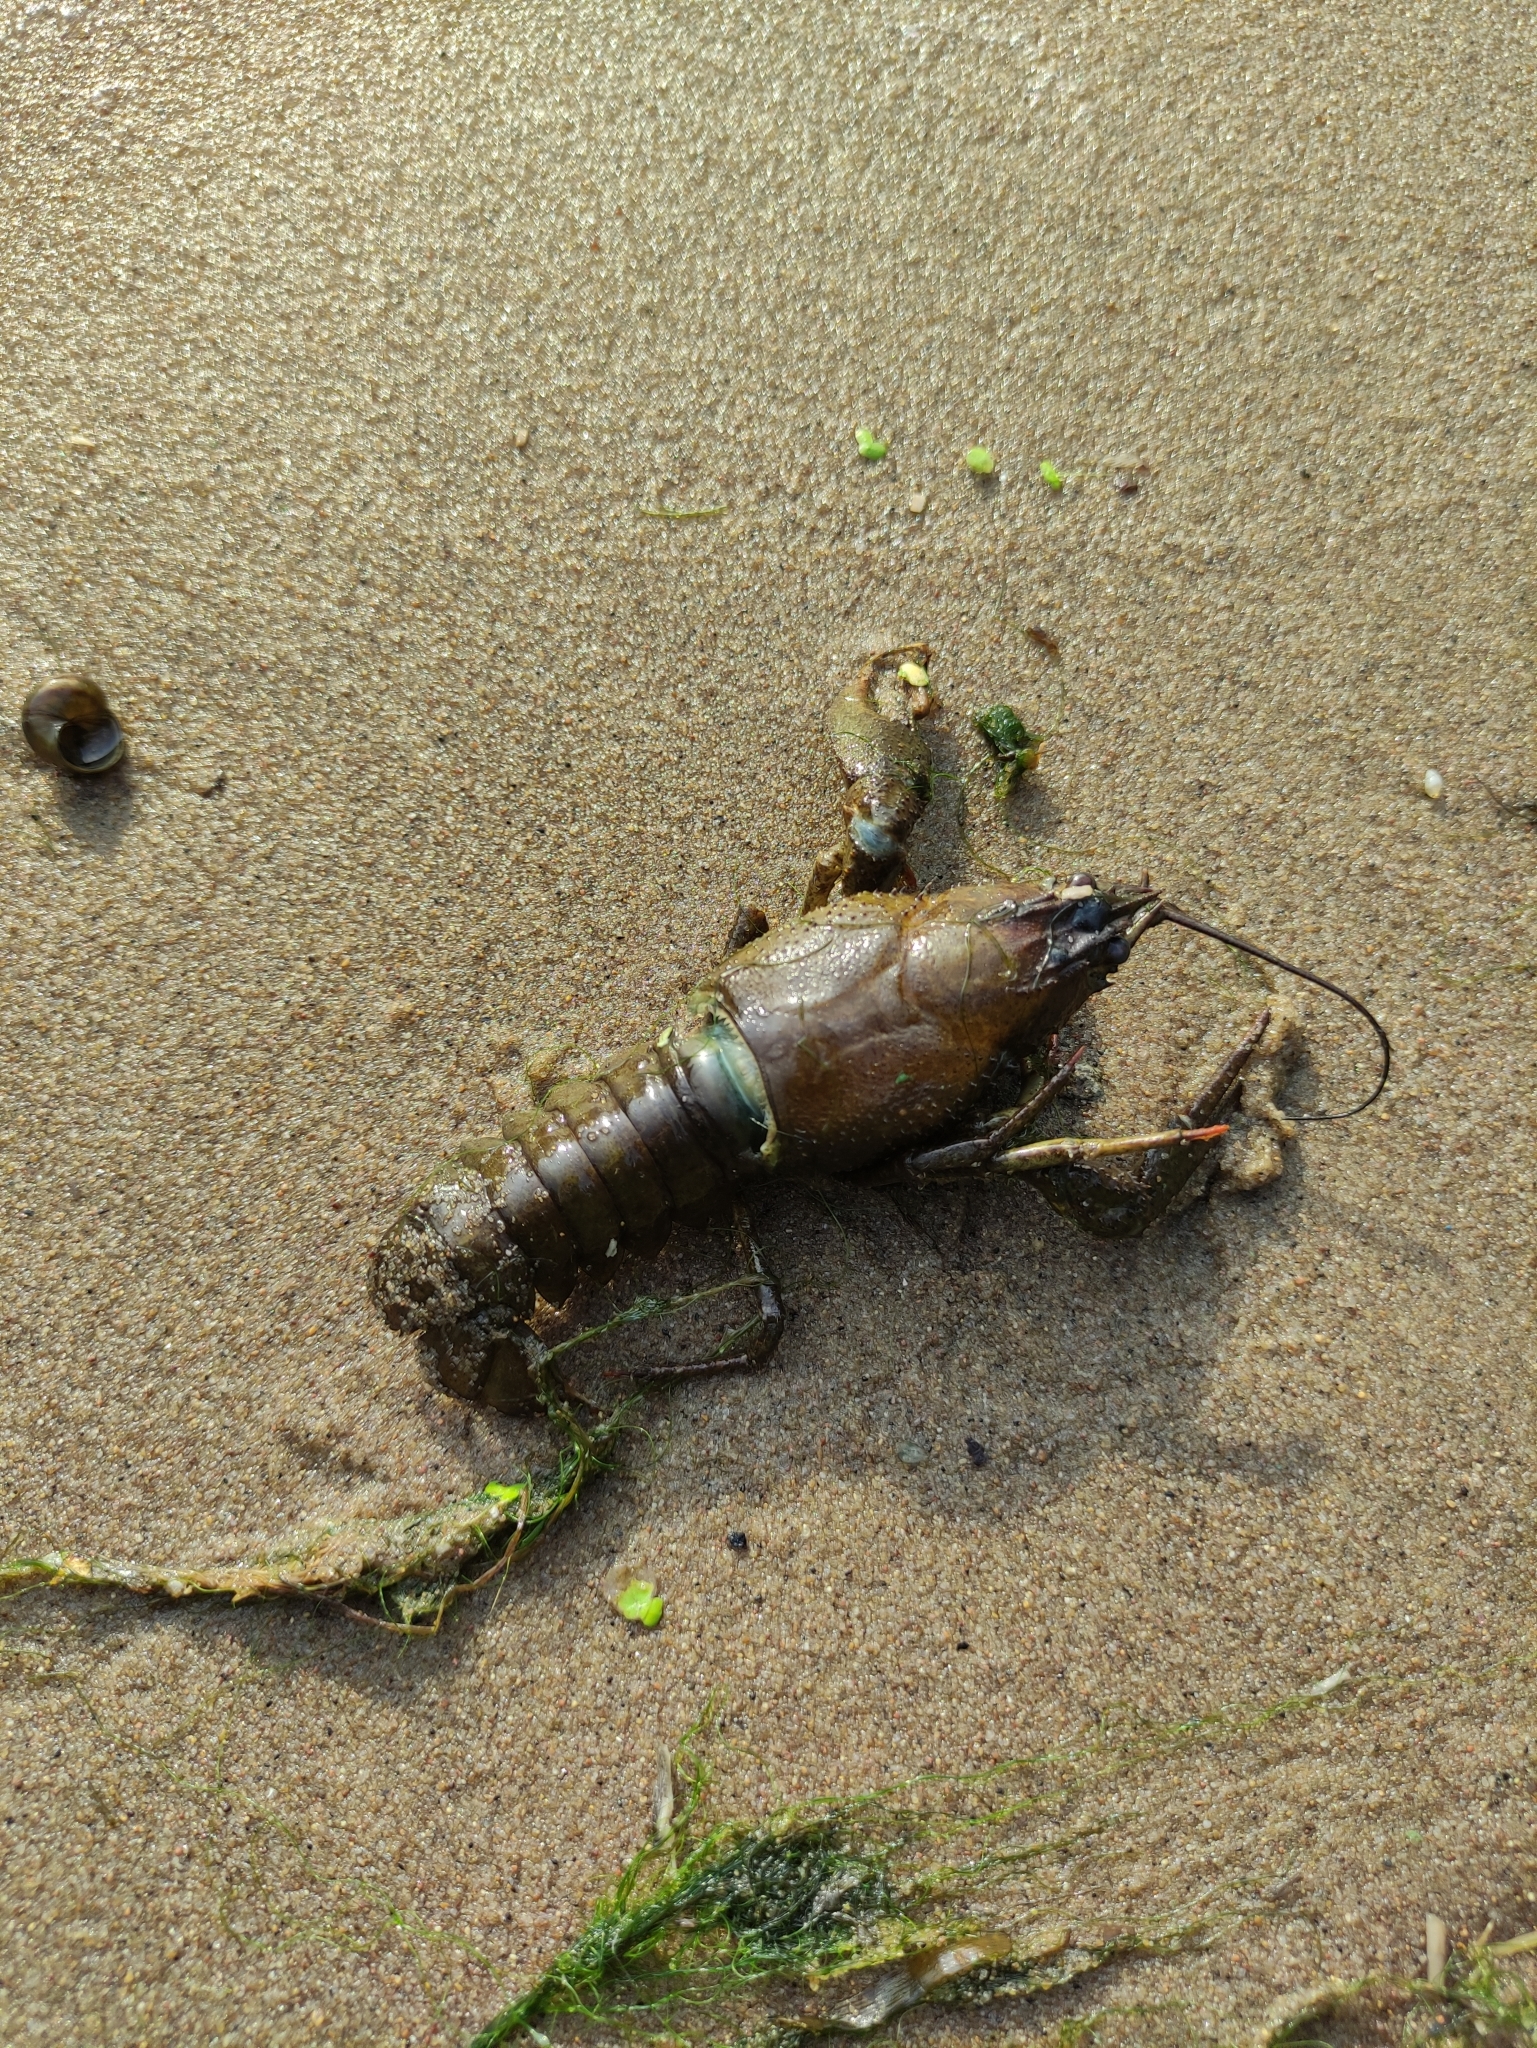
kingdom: Animalia
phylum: Arthropoda
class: Malacostraca
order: Decapoda
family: Astacidae
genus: Pontastacus
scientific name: Pontastacus leptodactylus
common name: Danube crayfish
